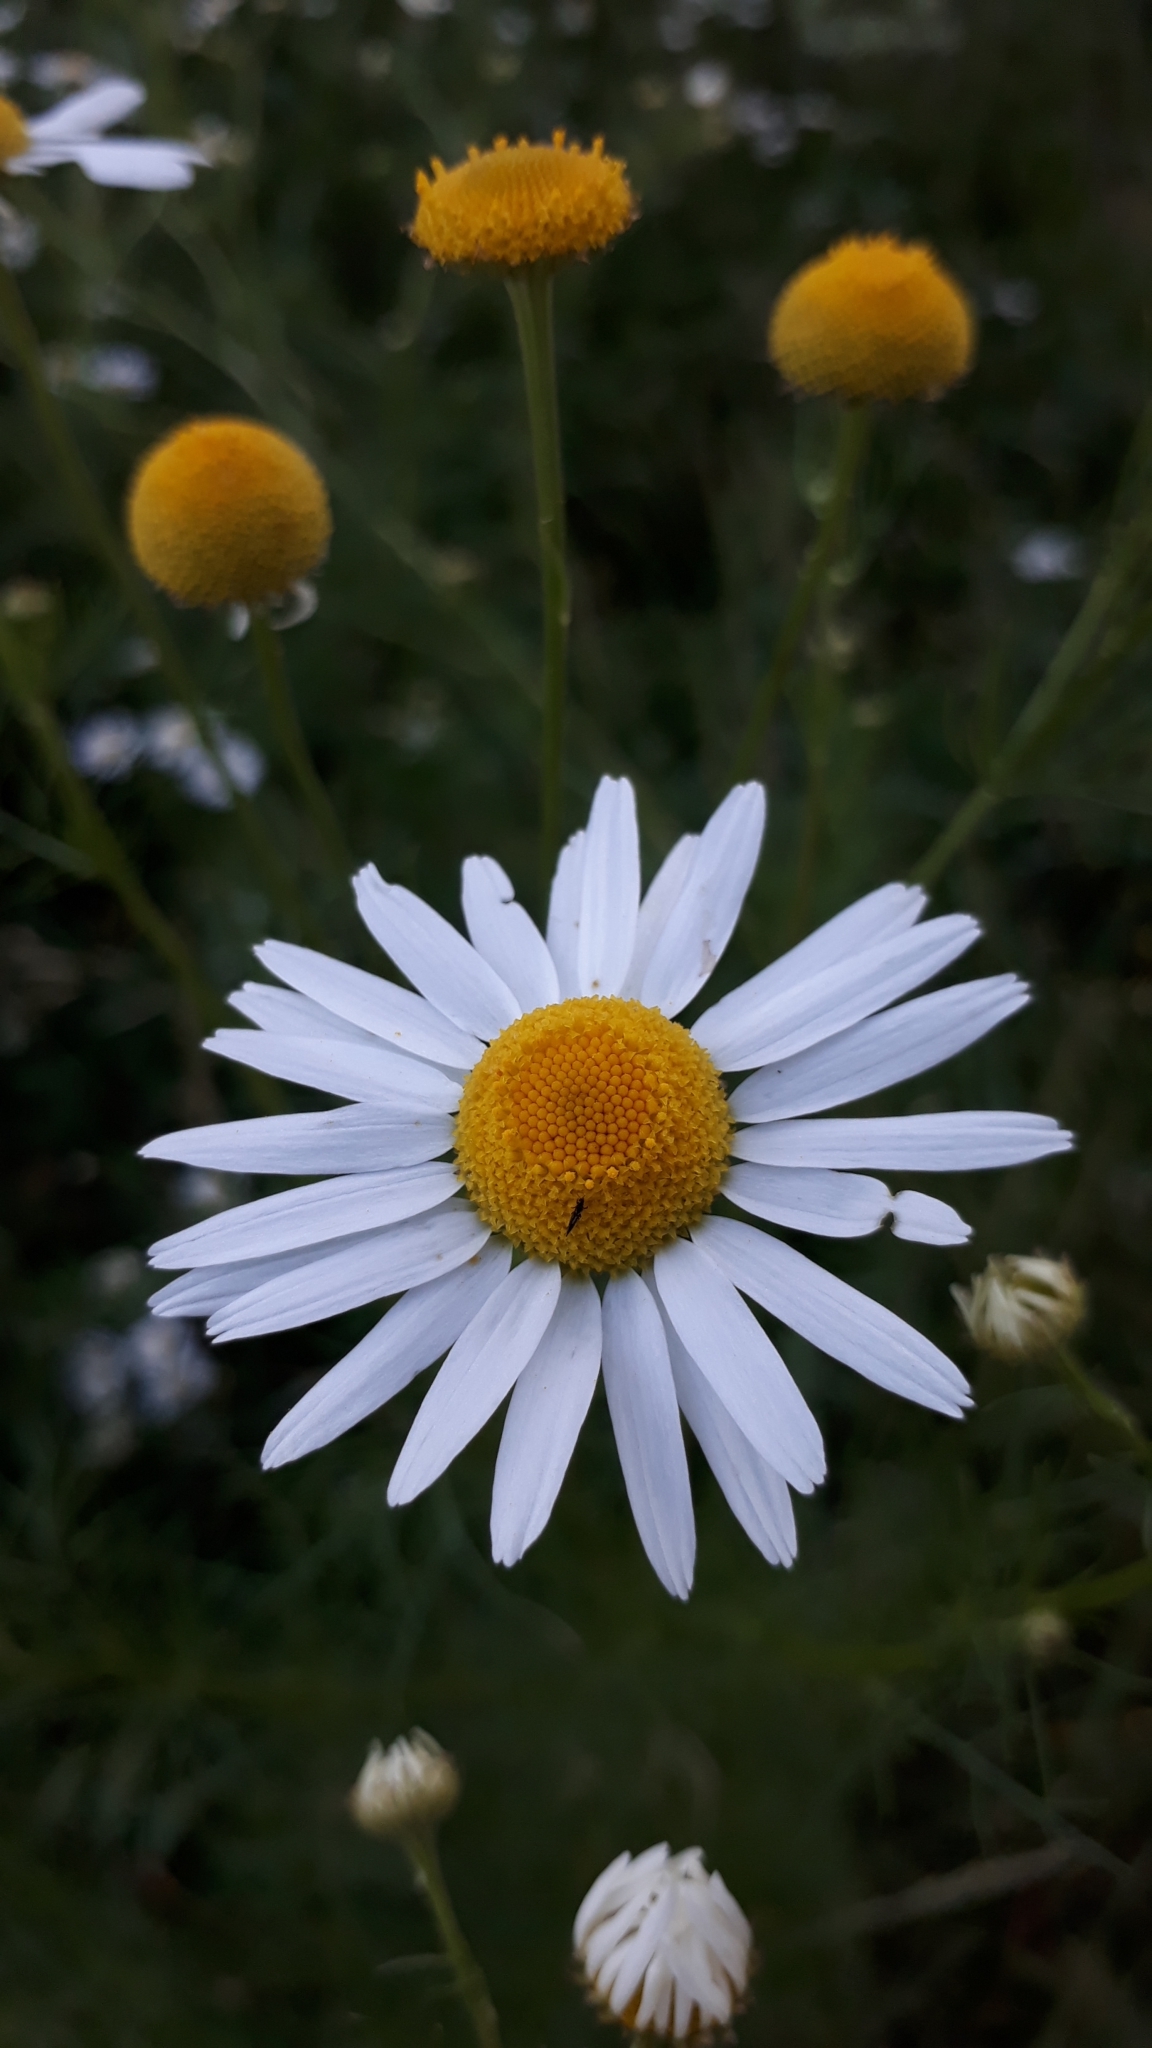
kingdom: Plantae
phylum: Tracheophyta
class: Magnoliopsida
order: Asterales
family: Asteraceae
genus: Tripleurospermum
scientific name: Tripleurospermum inodorum
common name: Scentless mayweed
